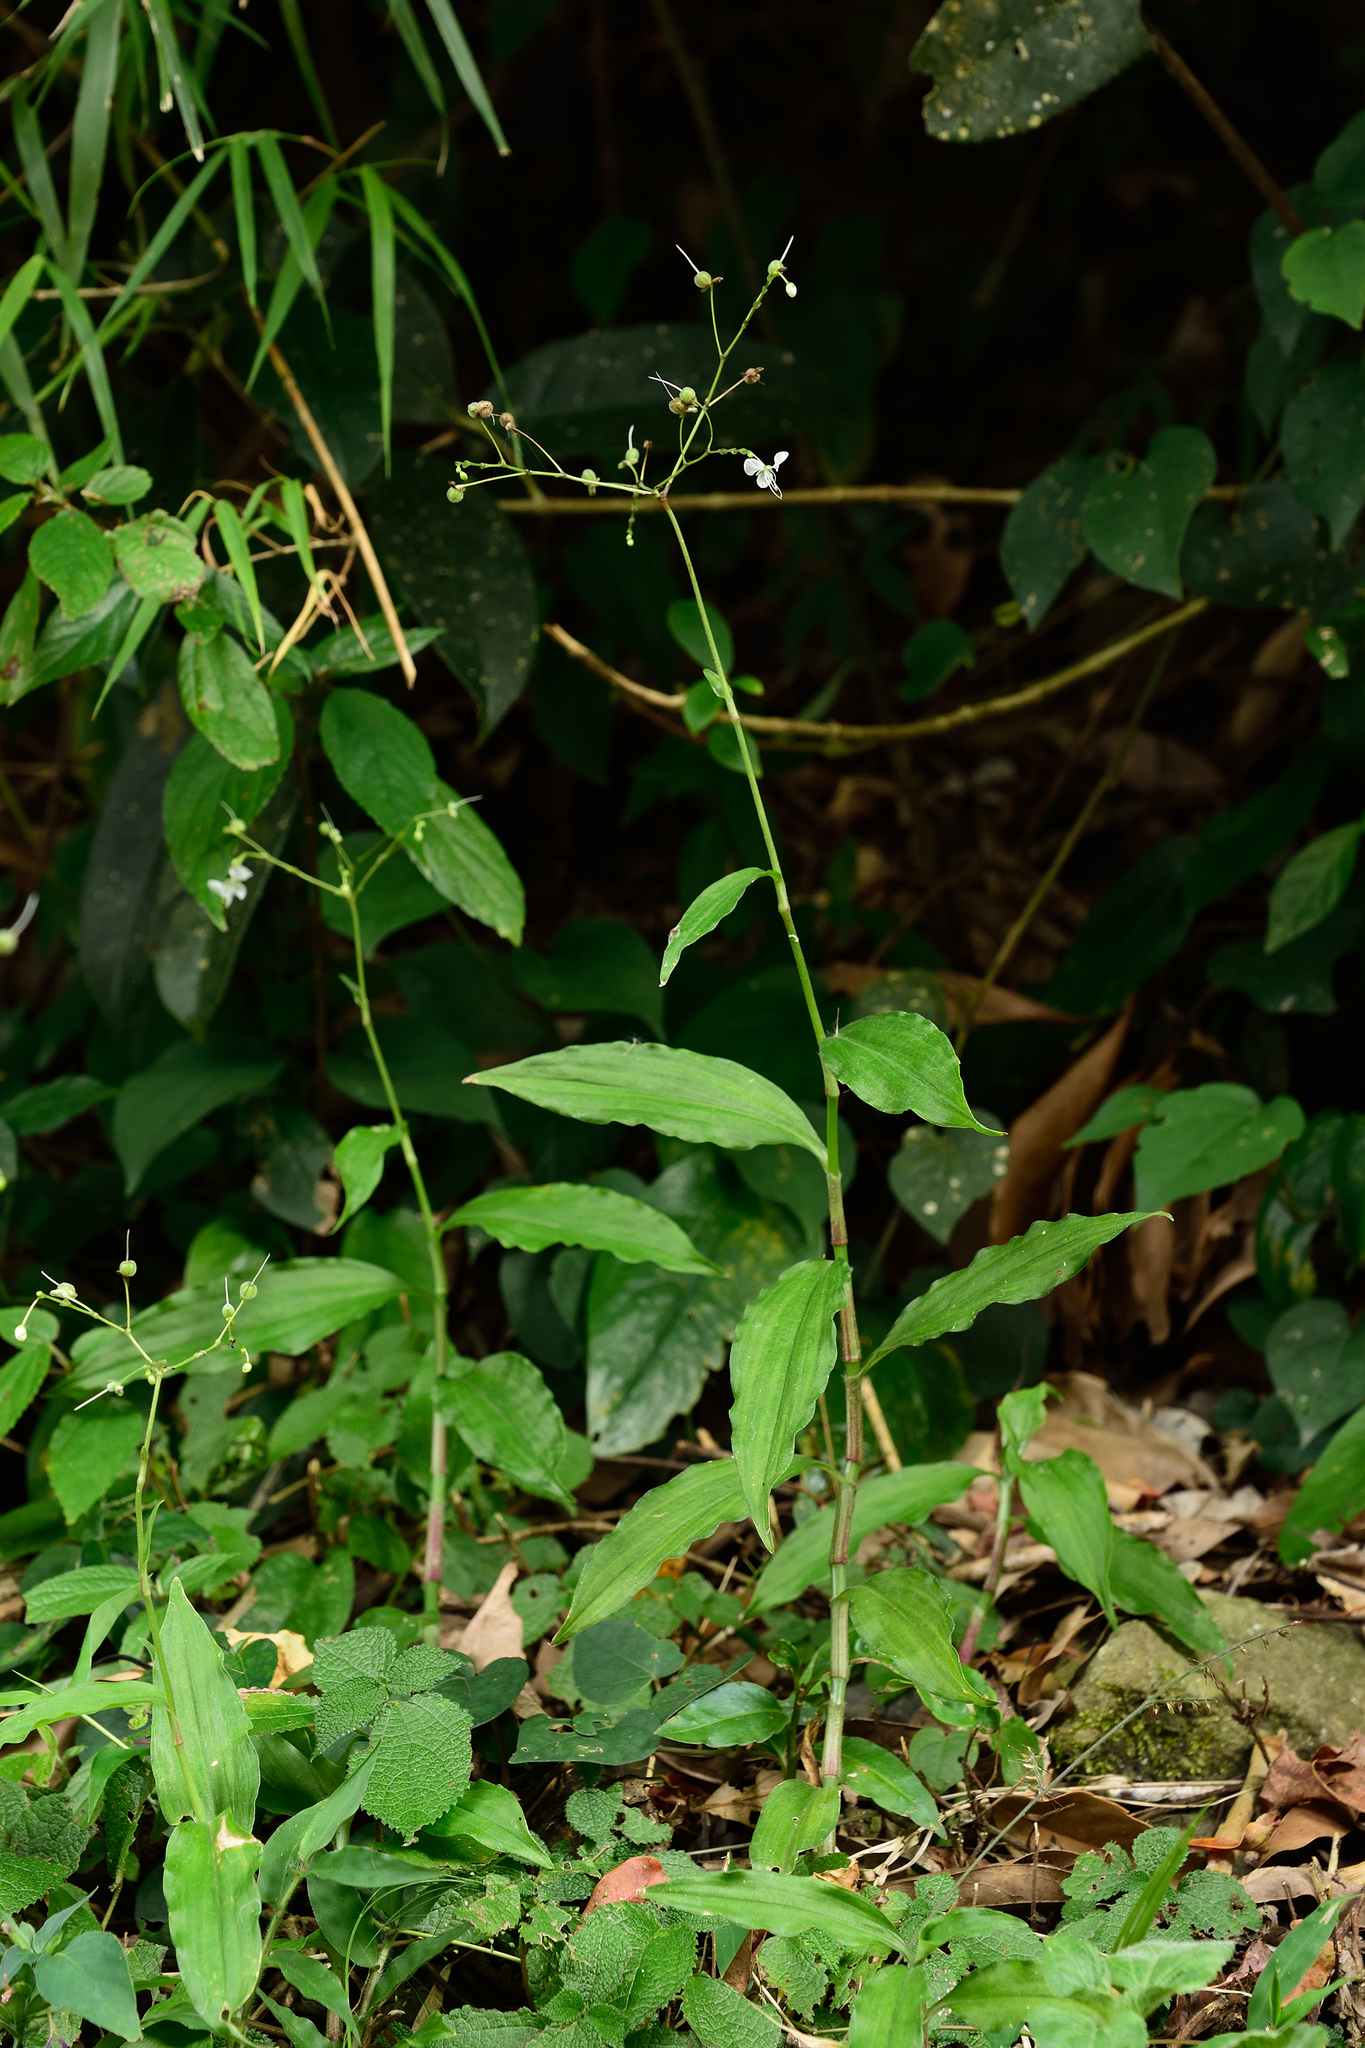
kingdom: Plantae
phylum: Tracheophyta
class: Liliopsida
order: Commelinales
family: Commelinaceae
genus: Rhopalephora
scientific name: Rhopalephora scaberrima
